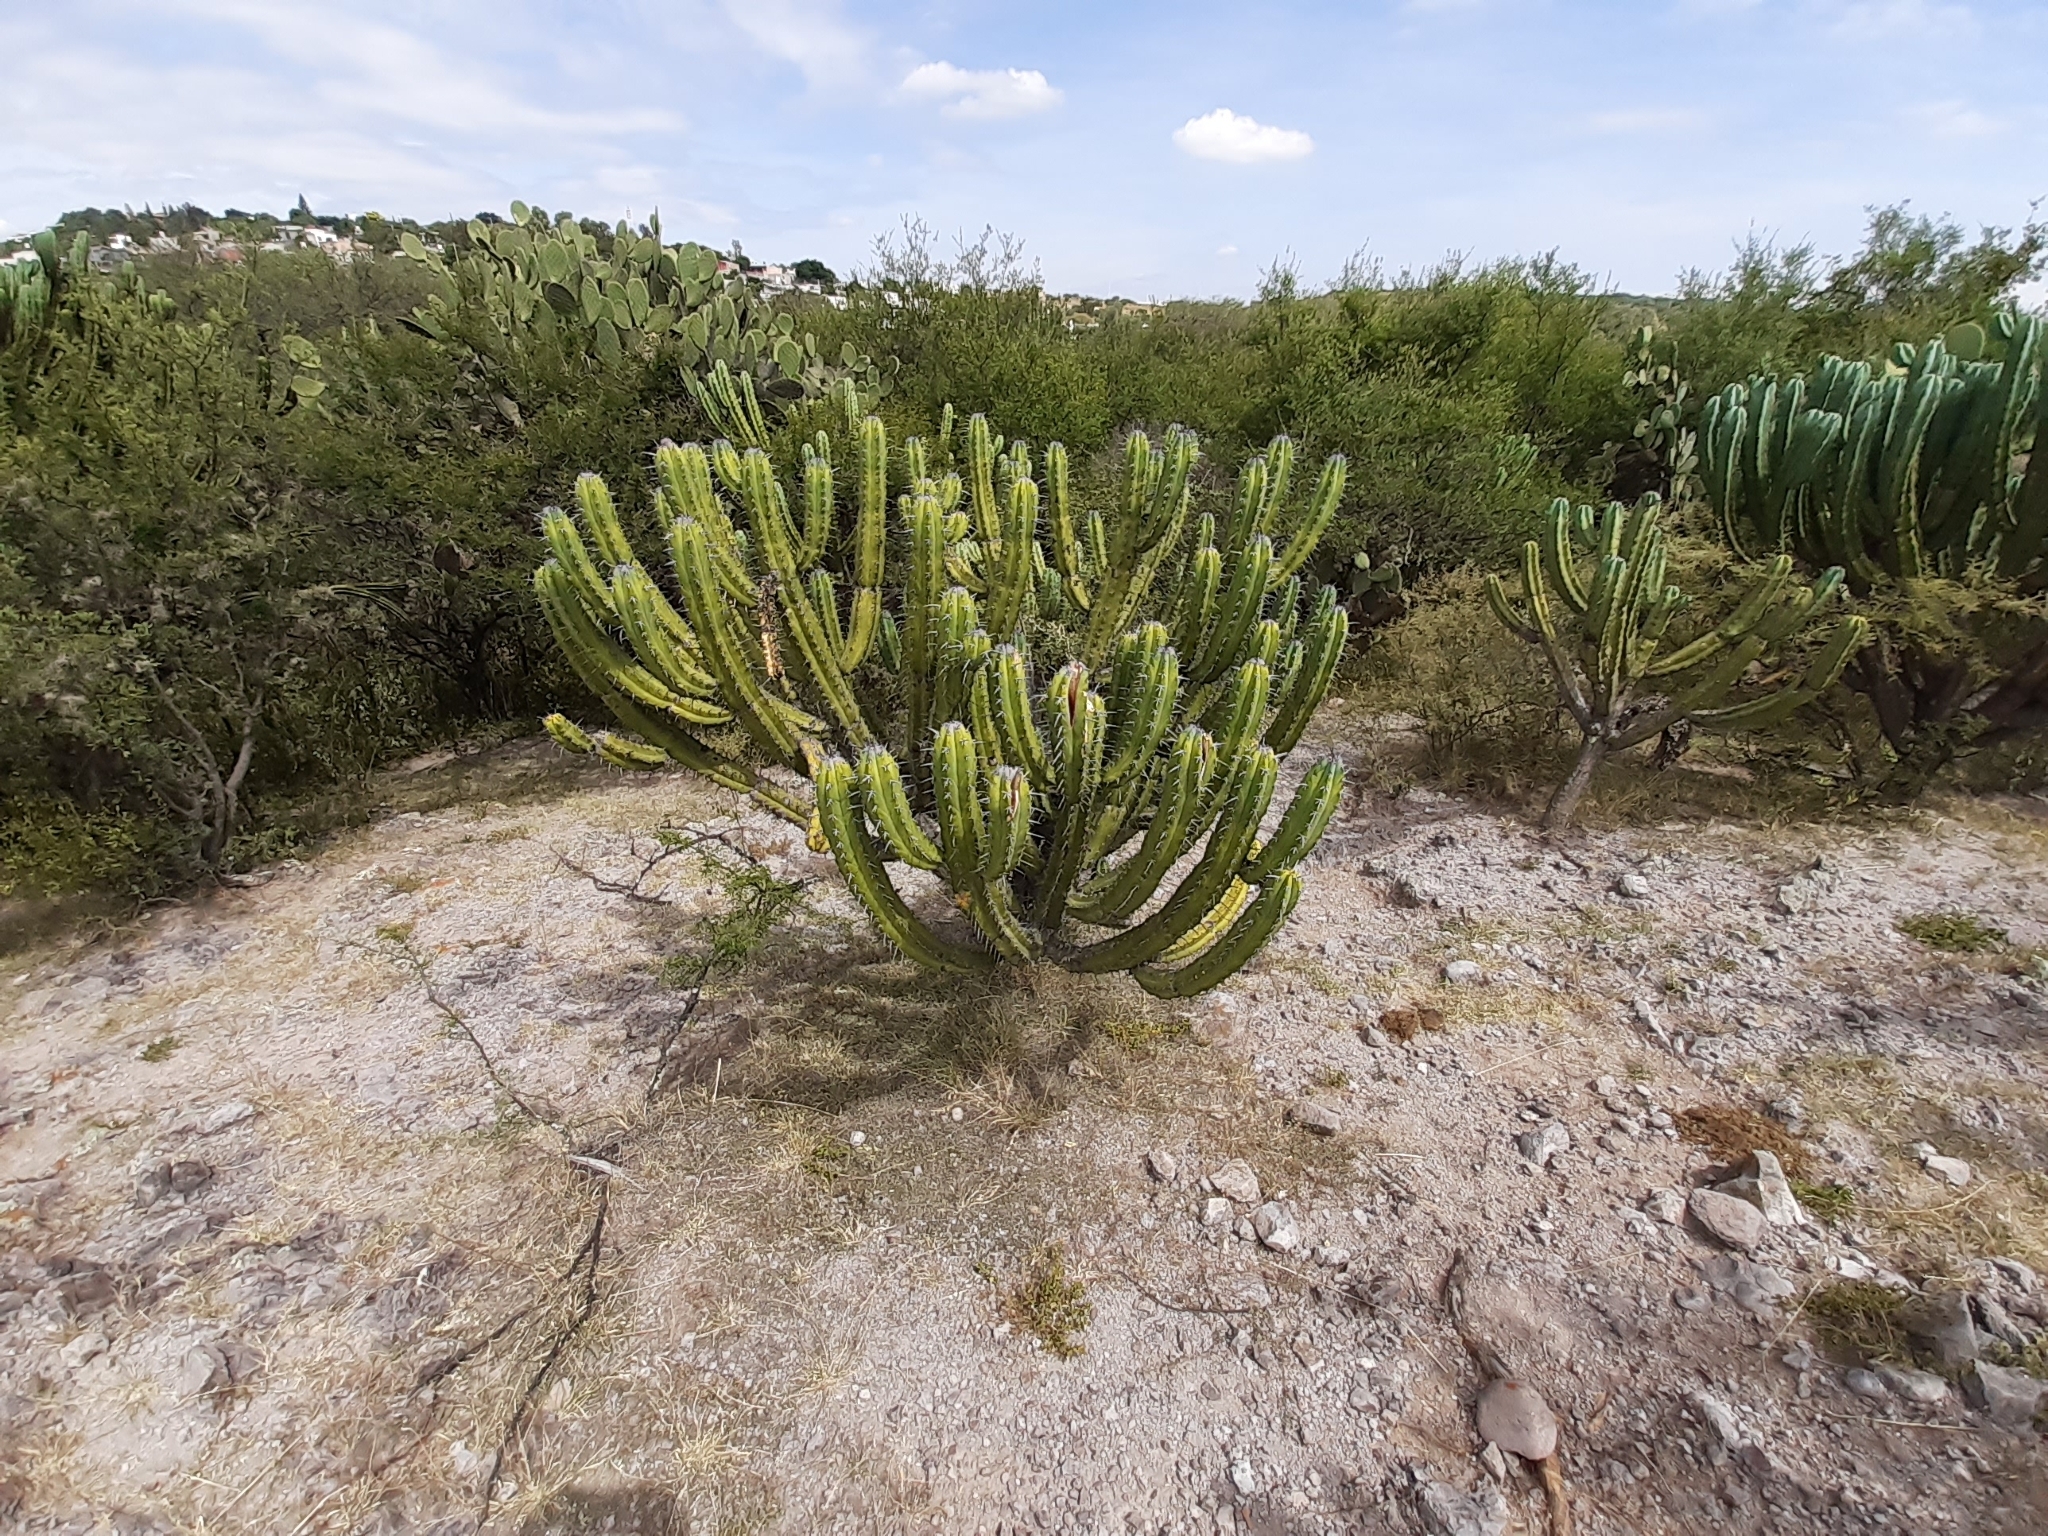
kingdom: Plantae
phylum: Tracheophyta
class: Magnoliopsida
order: Caryophyllales
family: Cactaceae
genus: Myrtillocactus
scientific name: Myrtillocactus geometrizans
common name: Bilberry cactus
